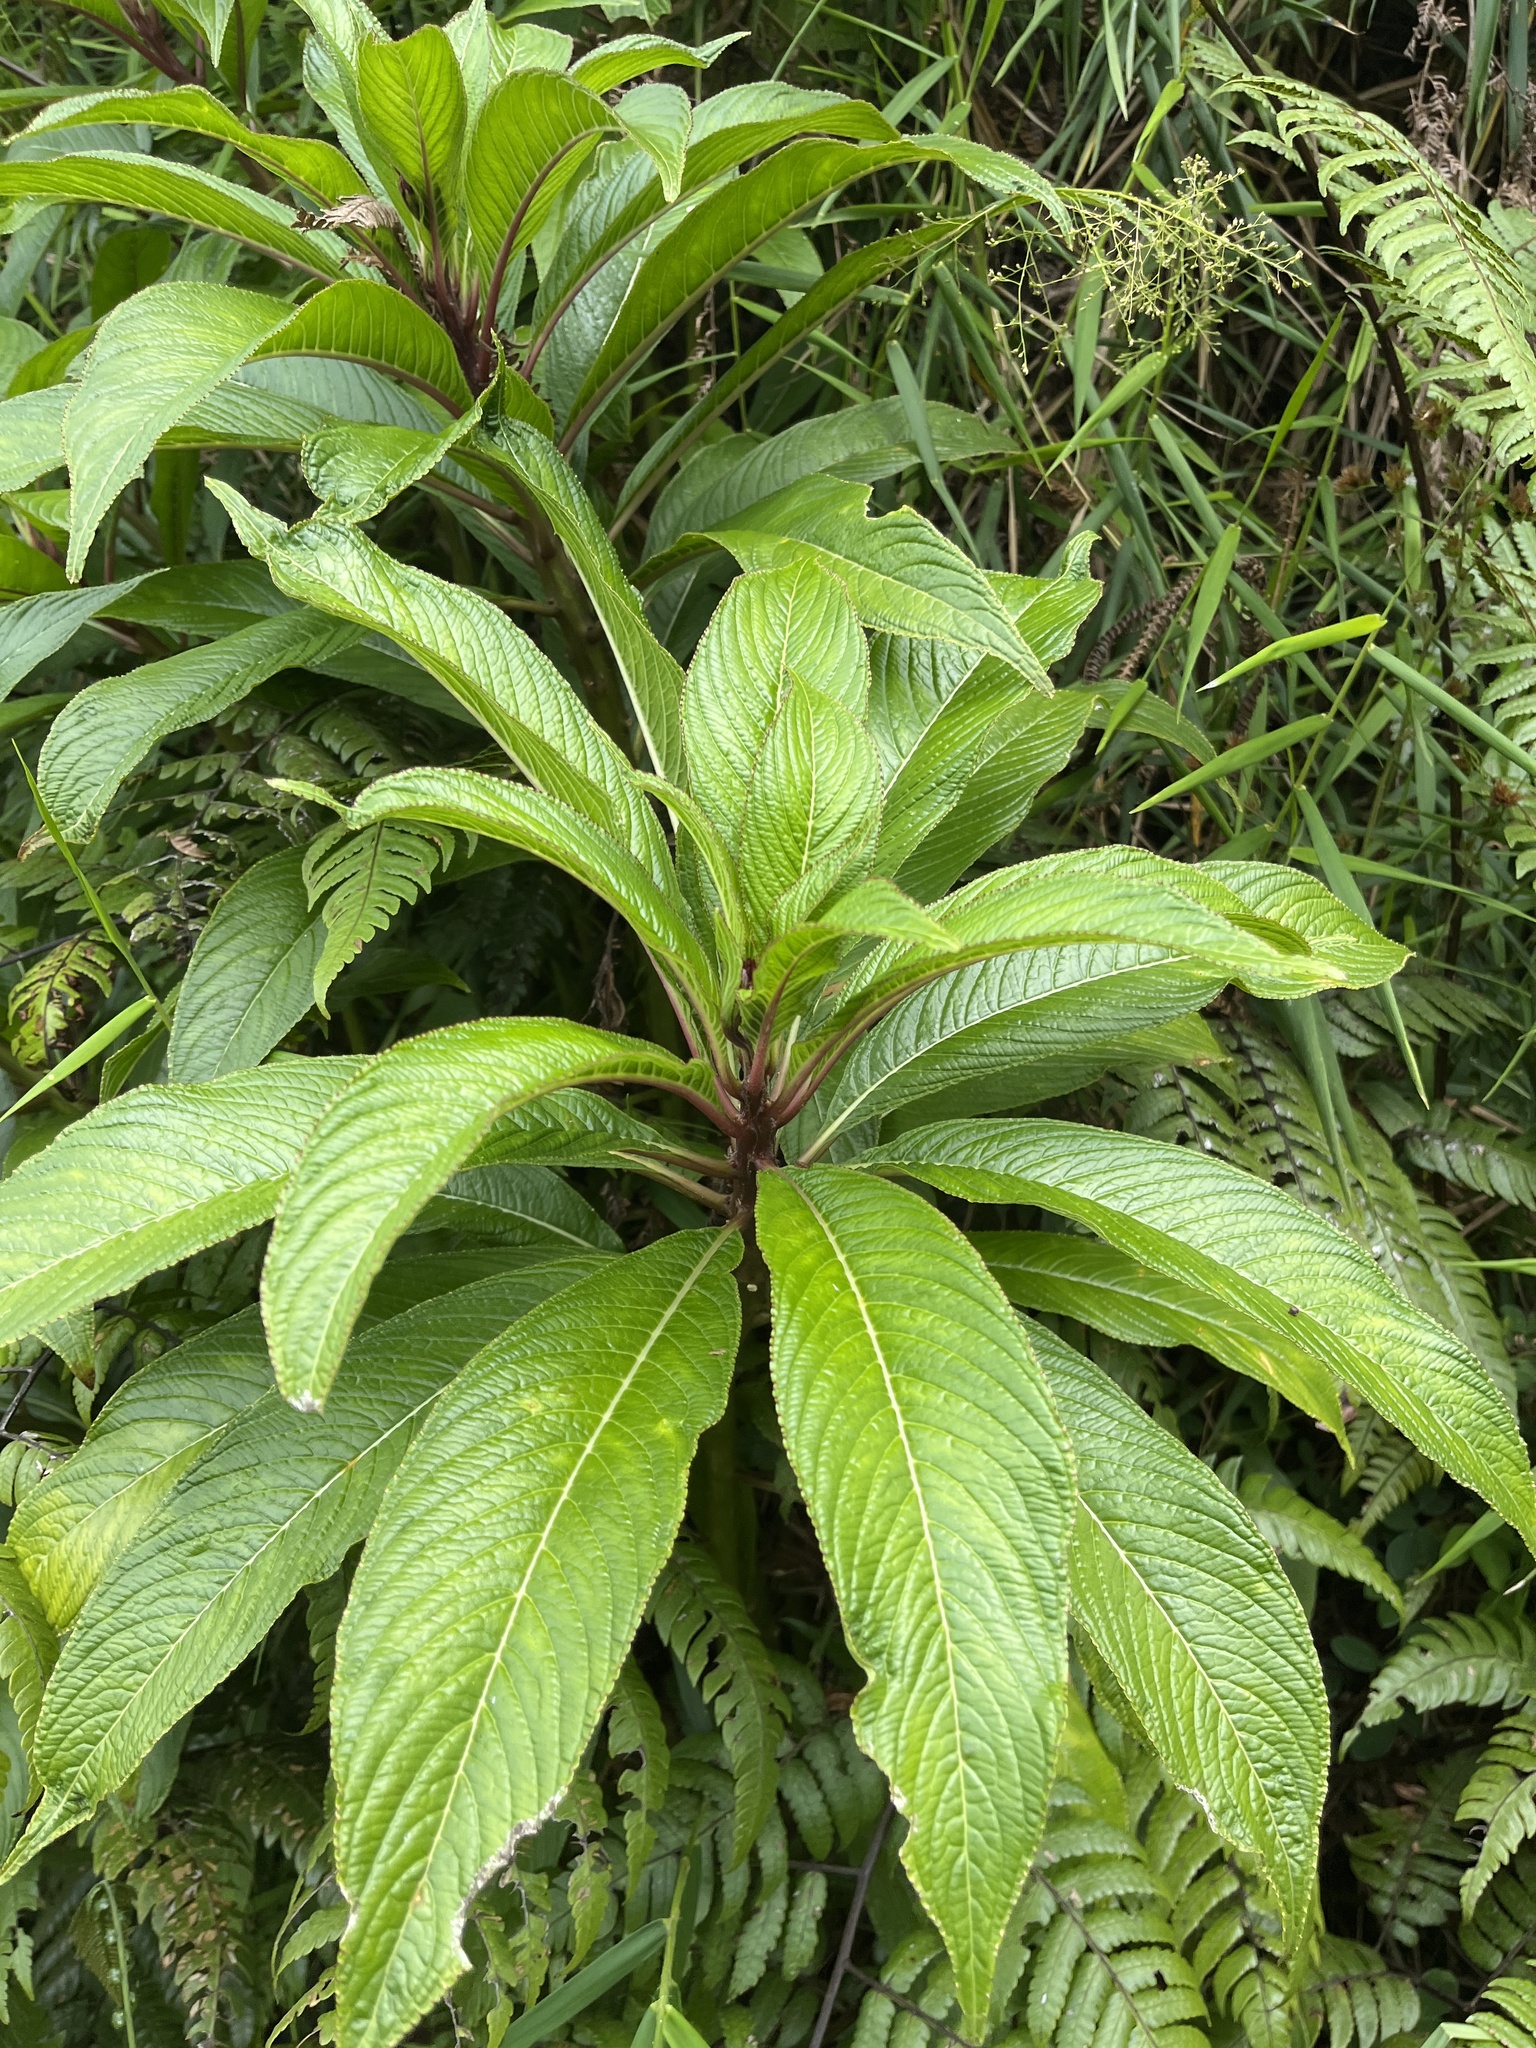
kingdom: Plantae
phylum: Tracheophyta
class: Magnoliopsida
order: Asterales
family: Campanulaceae
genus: Lobelia
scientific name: Lobelia portoricensis
